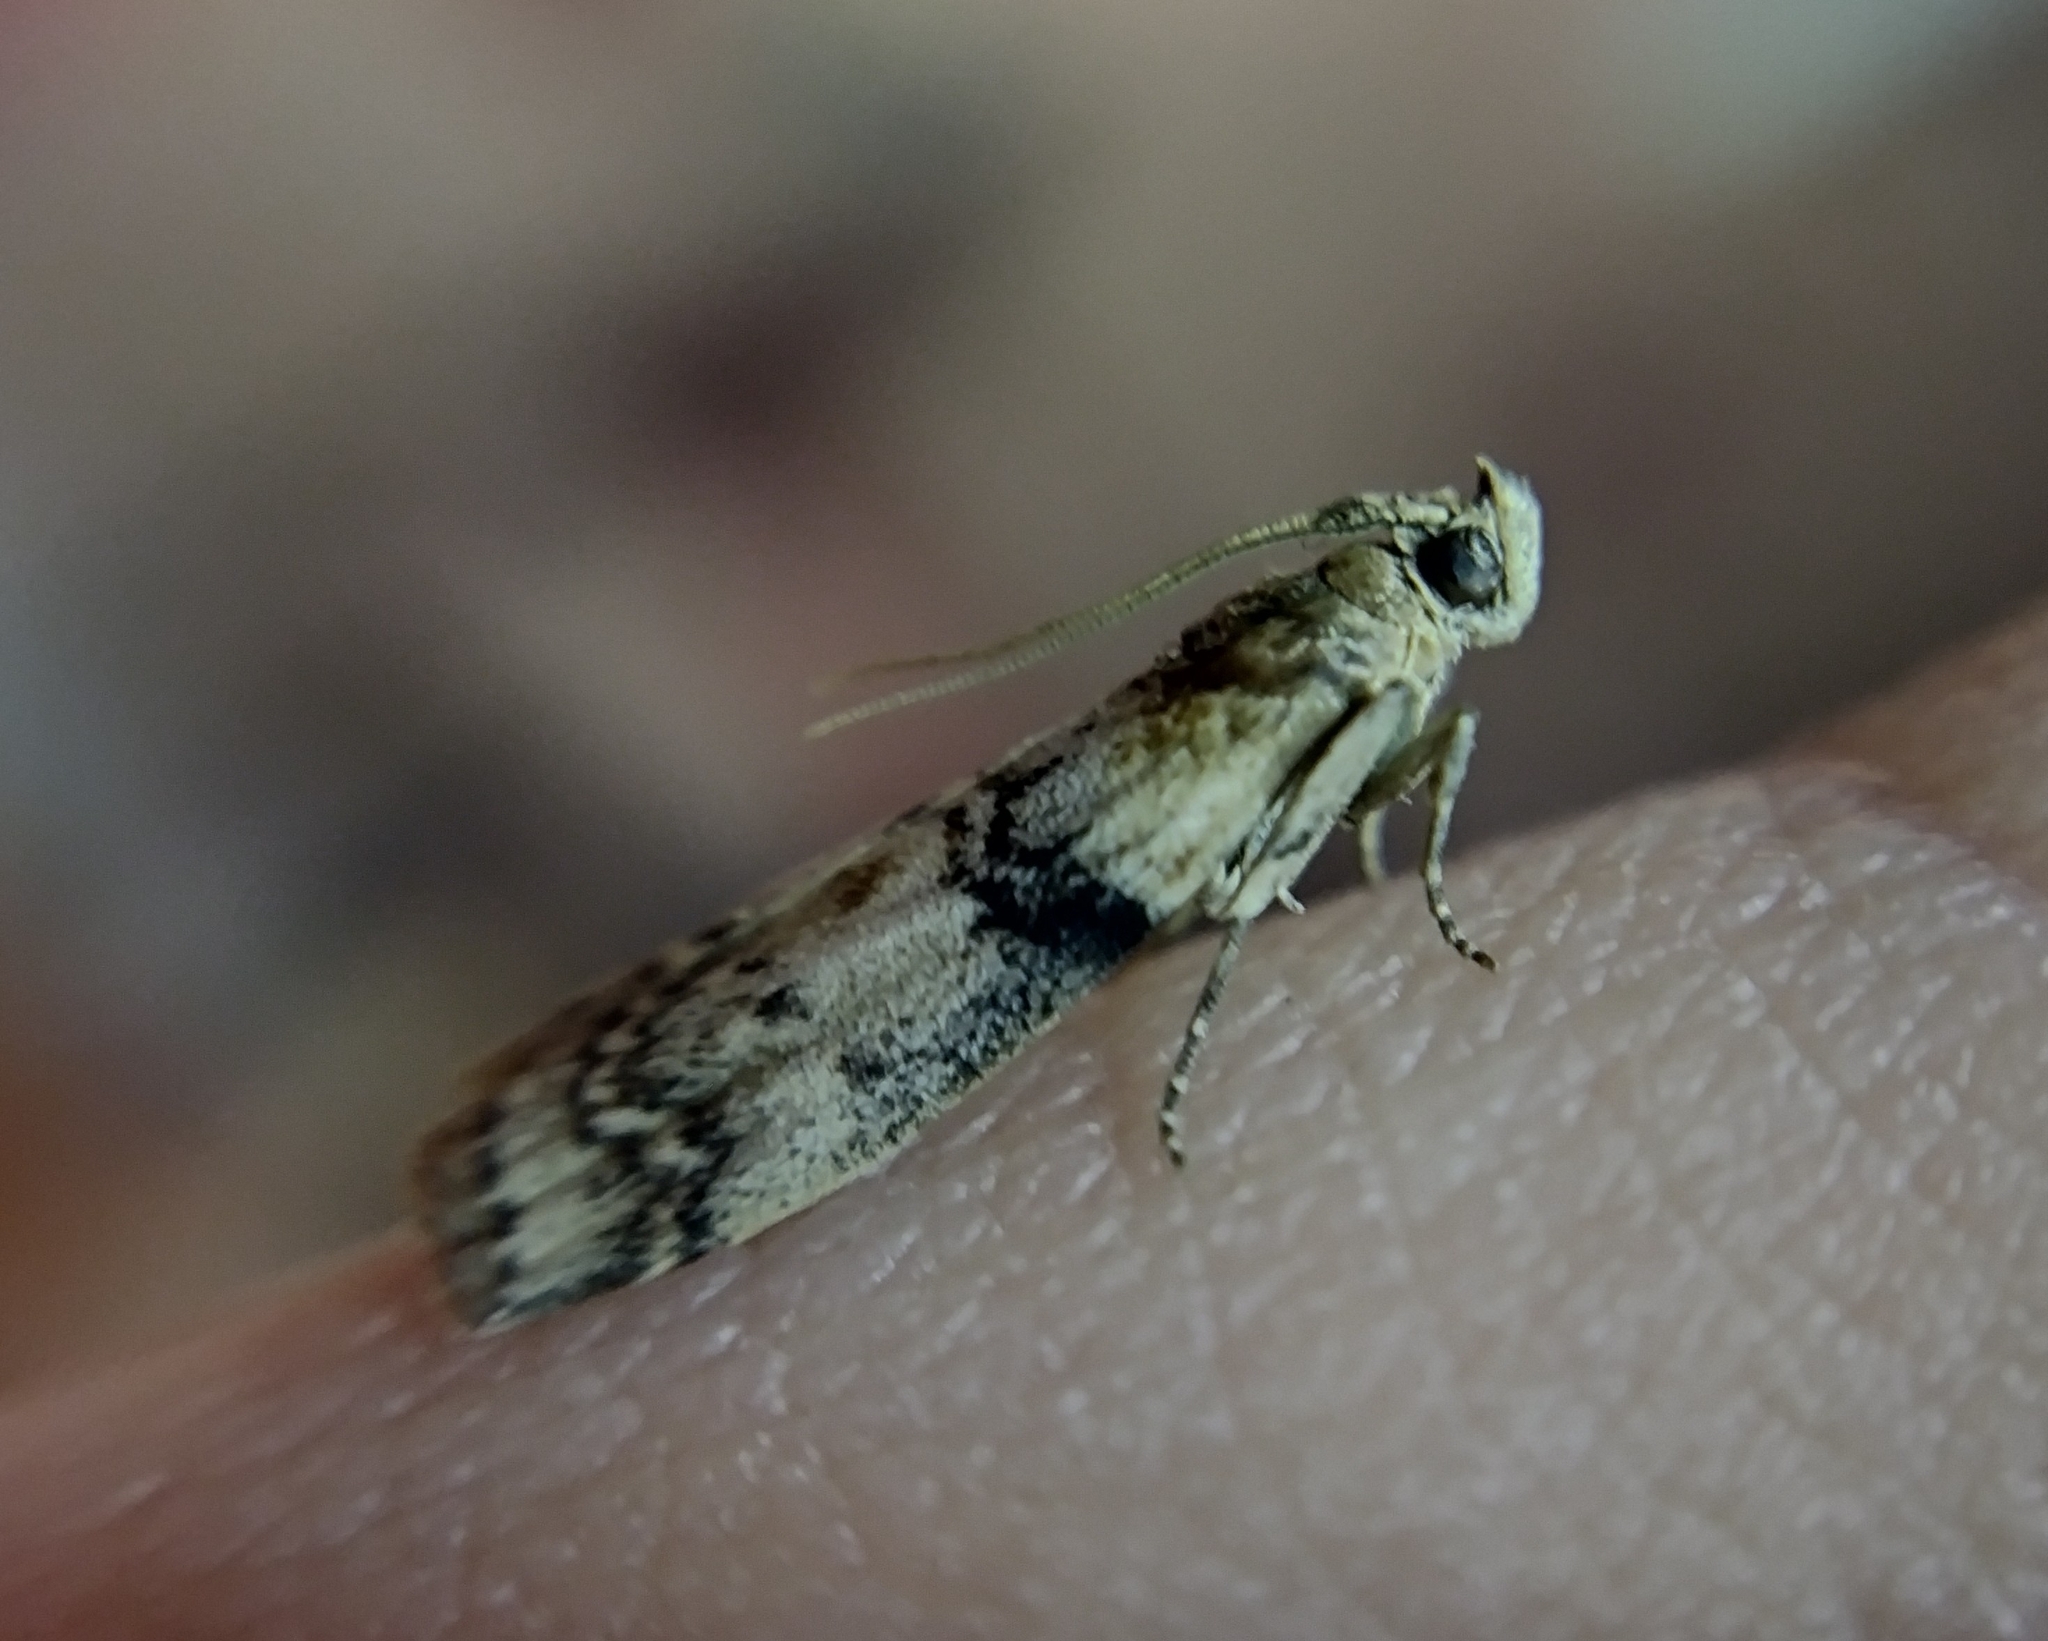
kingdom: Animalia
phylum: Arthropoda
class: Insecta
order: Lepidoptera
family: Pyralidae
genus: Euzophera
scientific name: Euzophera pinguis
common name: Ash-bark knot-horn
